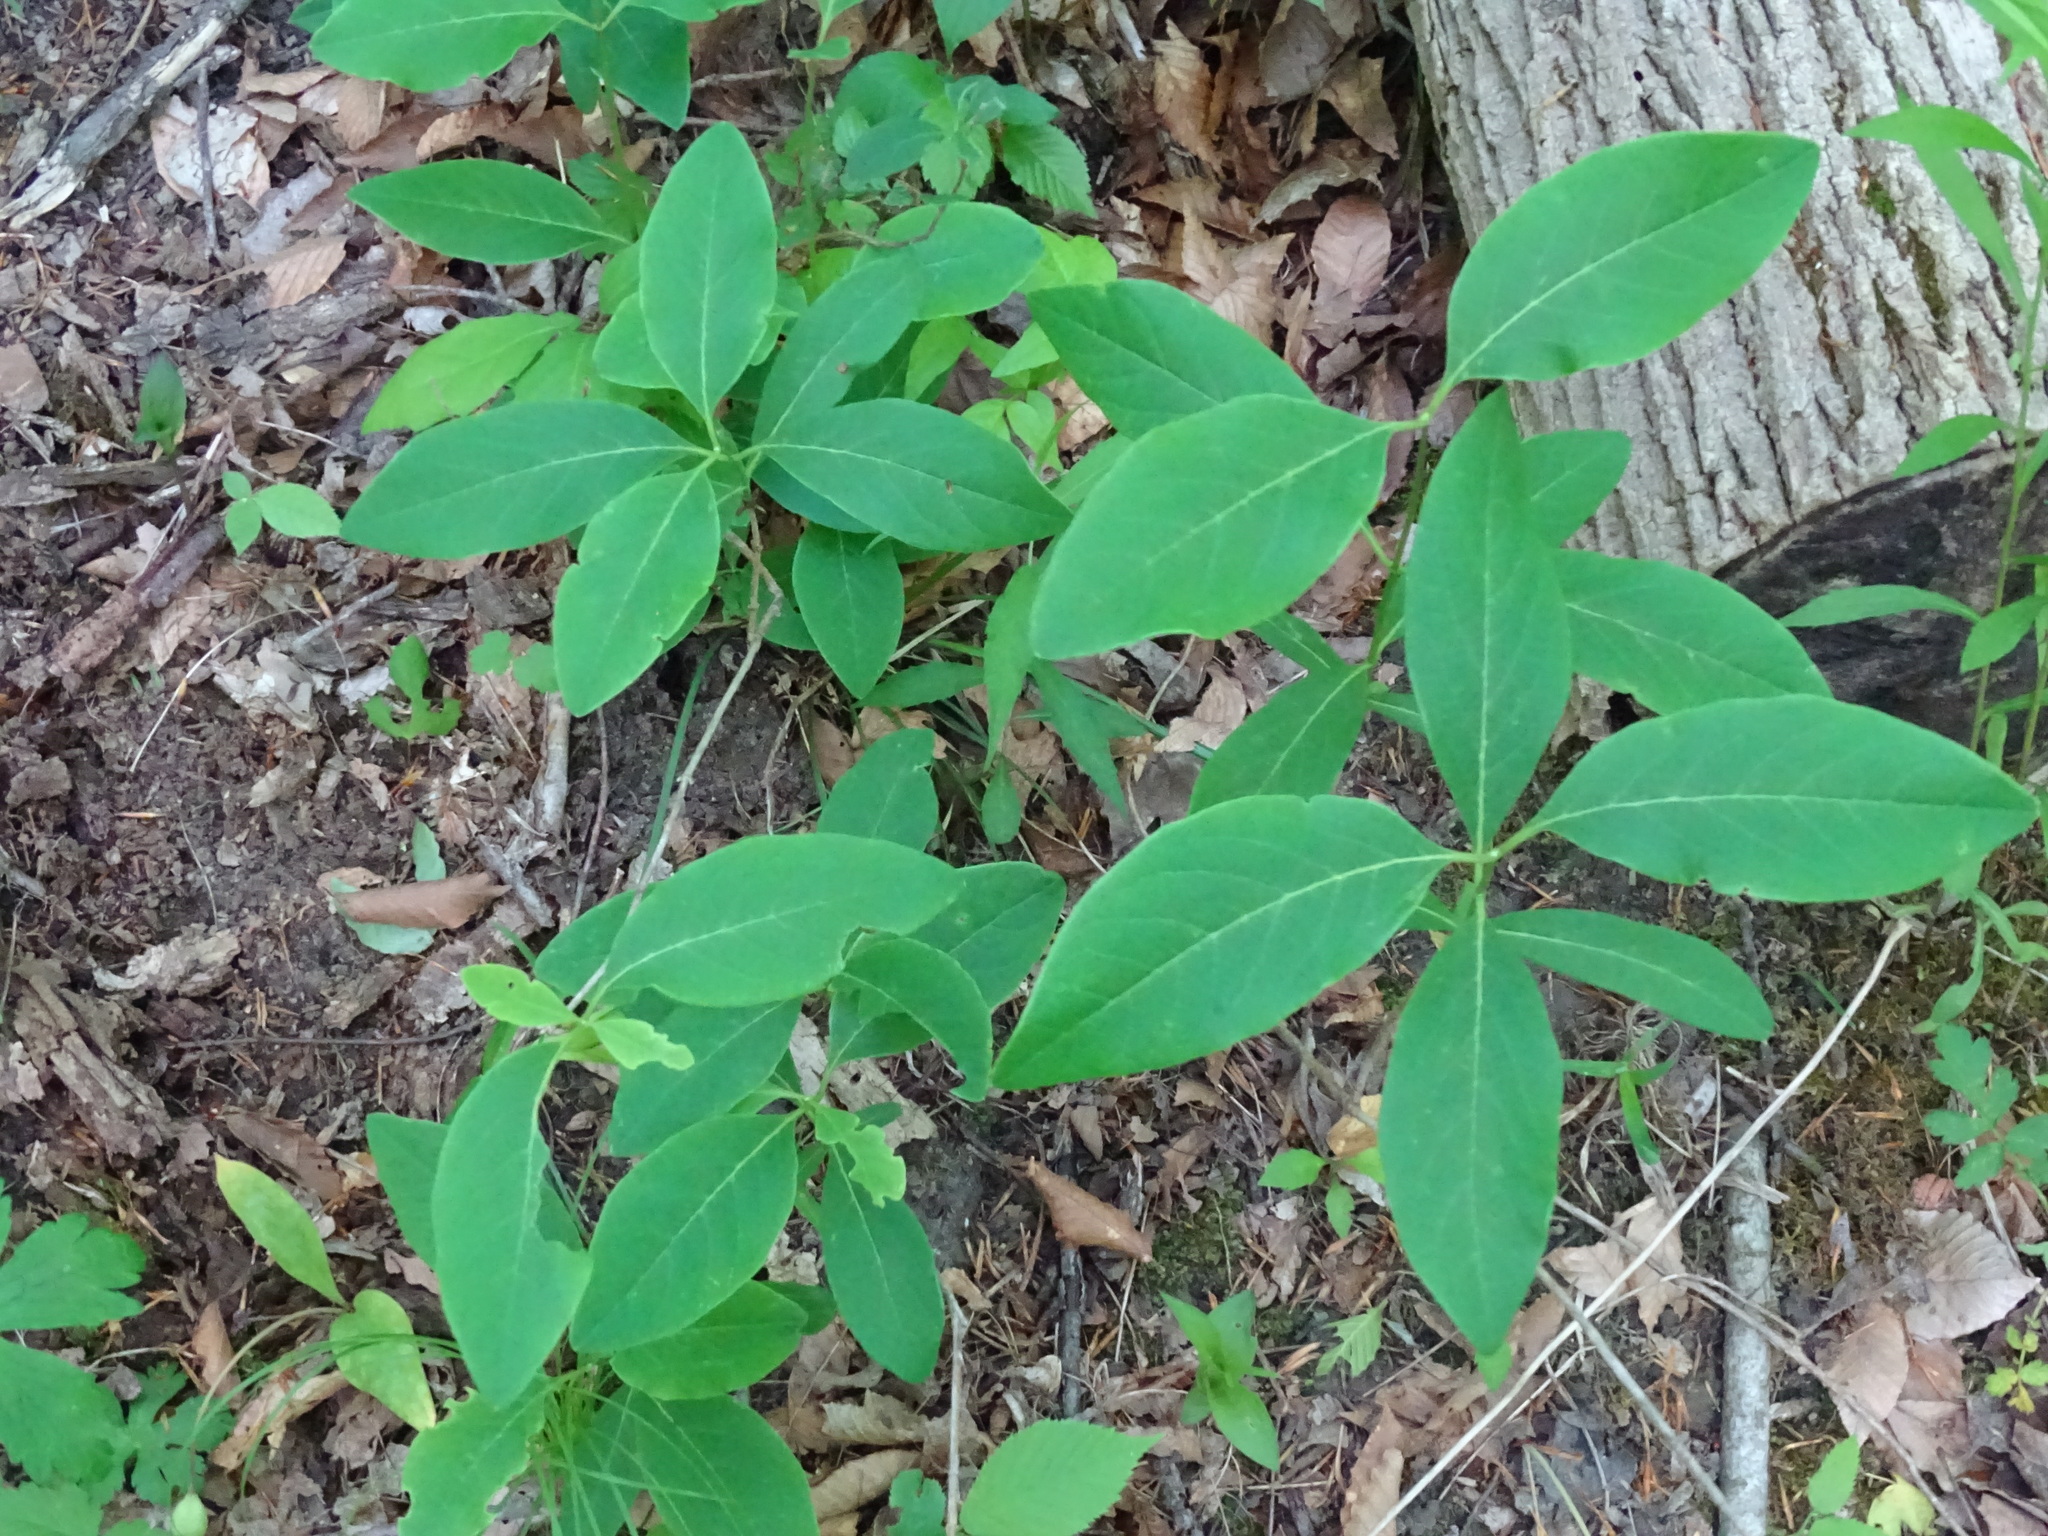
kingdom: Plantae
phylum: Tracheophyta
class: Magnoliopsida
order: Dipsacales
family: Caprifoliaceae
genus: Lonicera
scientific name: Lonicera dioica
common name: Limber honeysuckle
